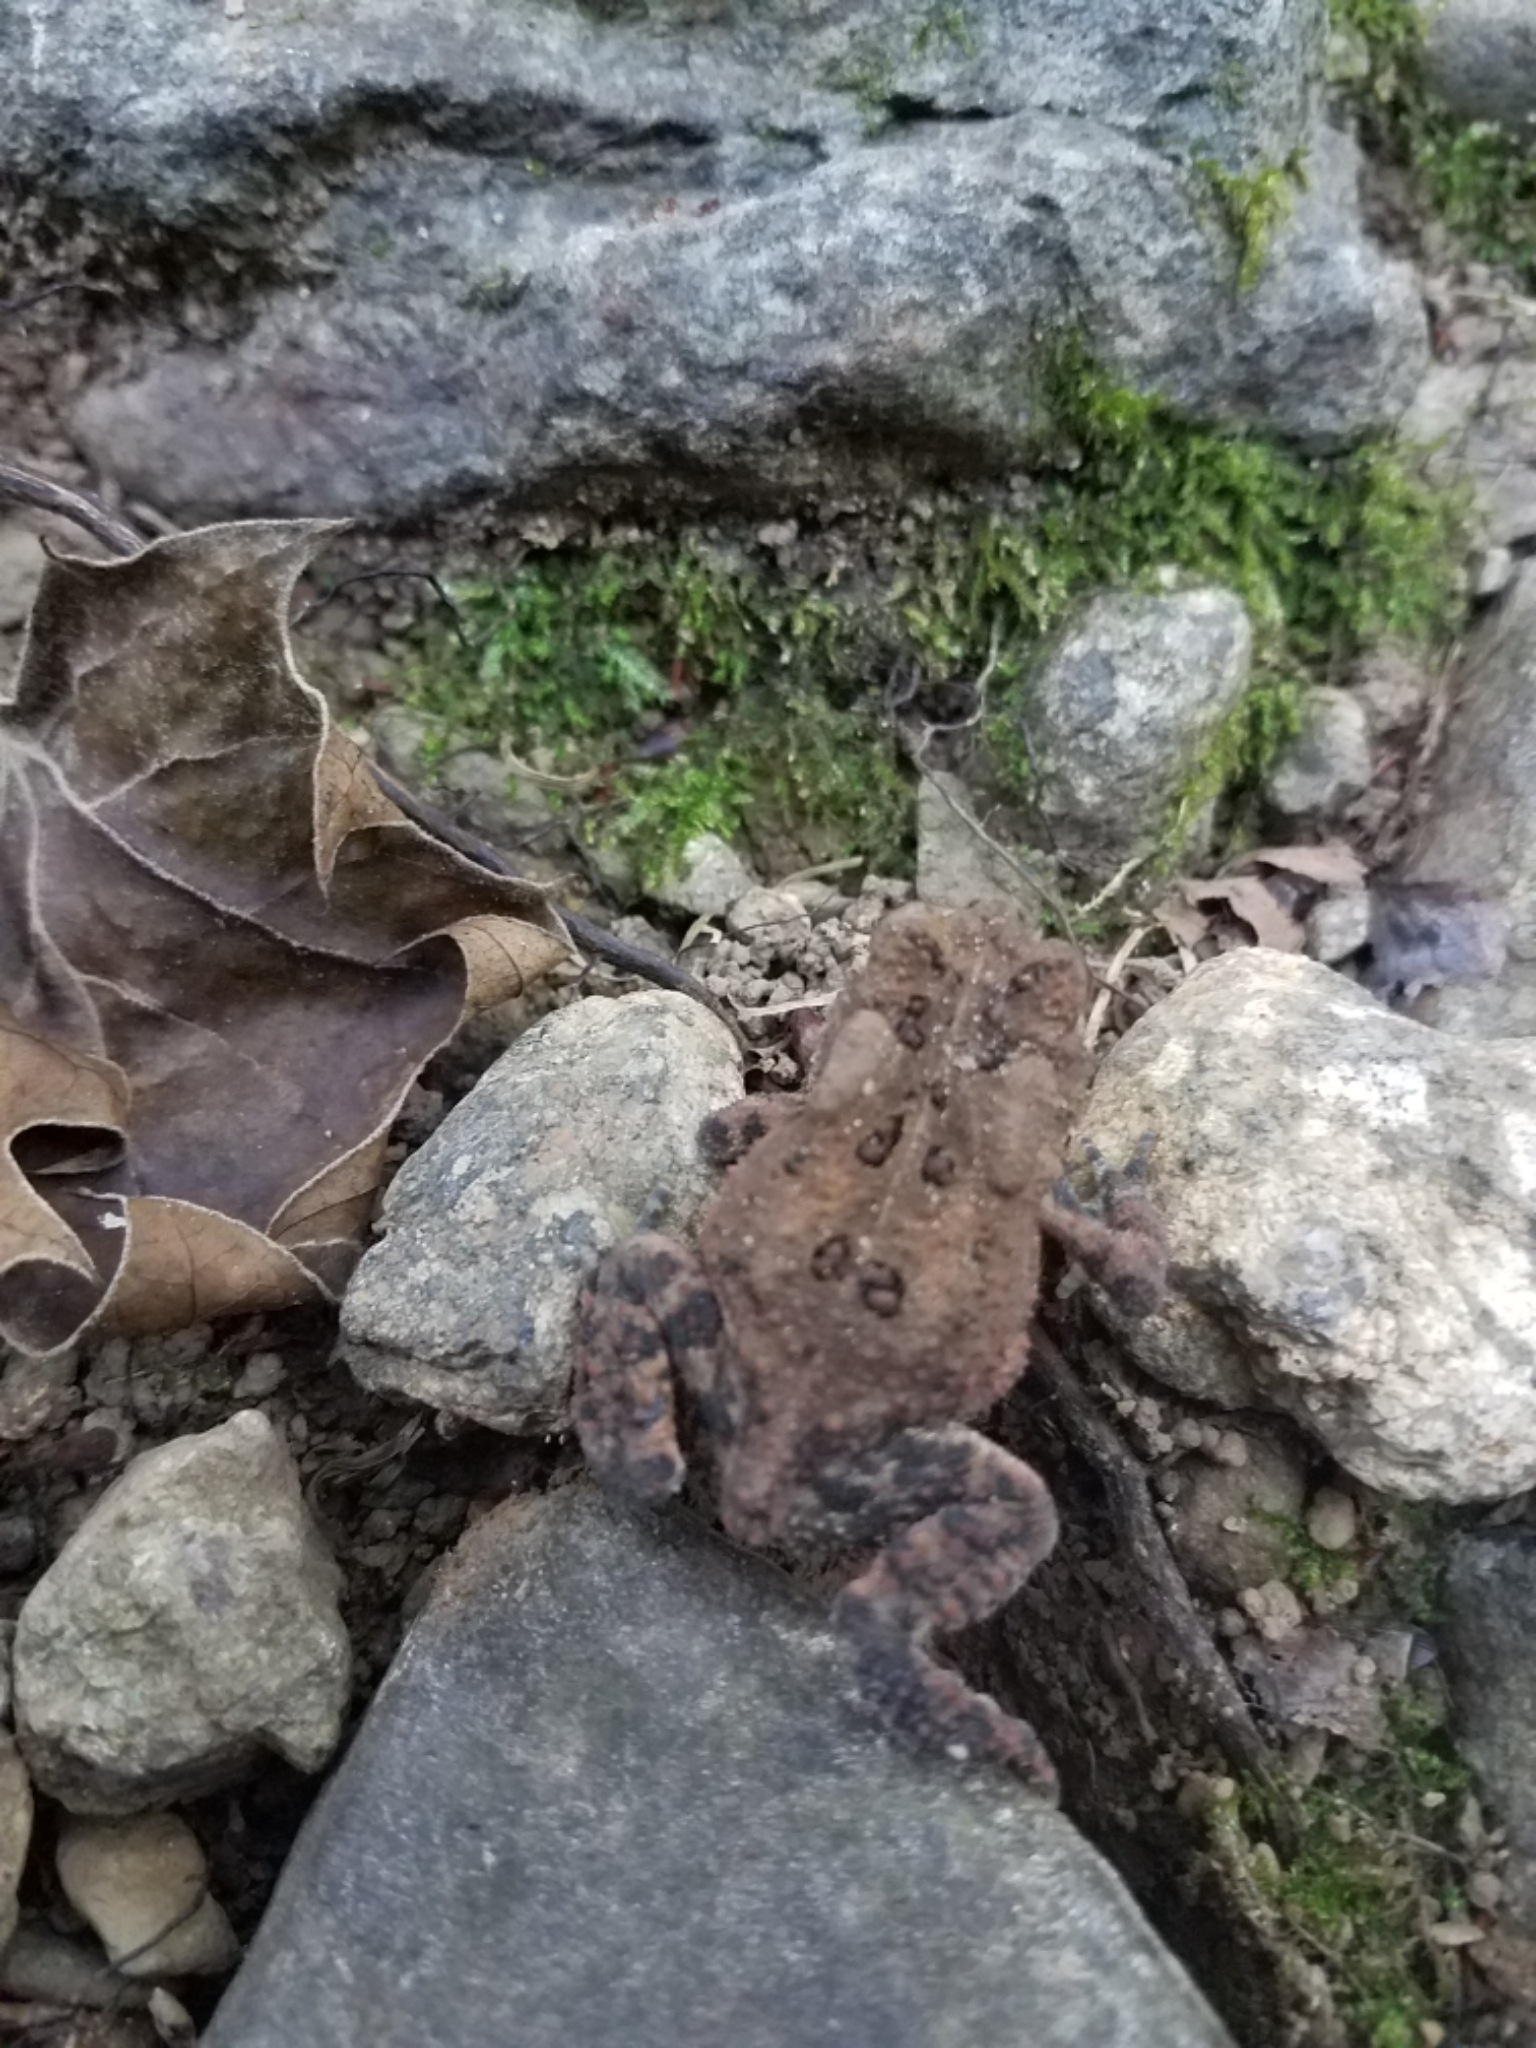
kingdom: Animalia
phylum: Chordata
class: Amphibia
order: Anura
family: Bufonidae
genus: Anaxyrus
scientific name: Anaxyrus americanus
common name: American toad
